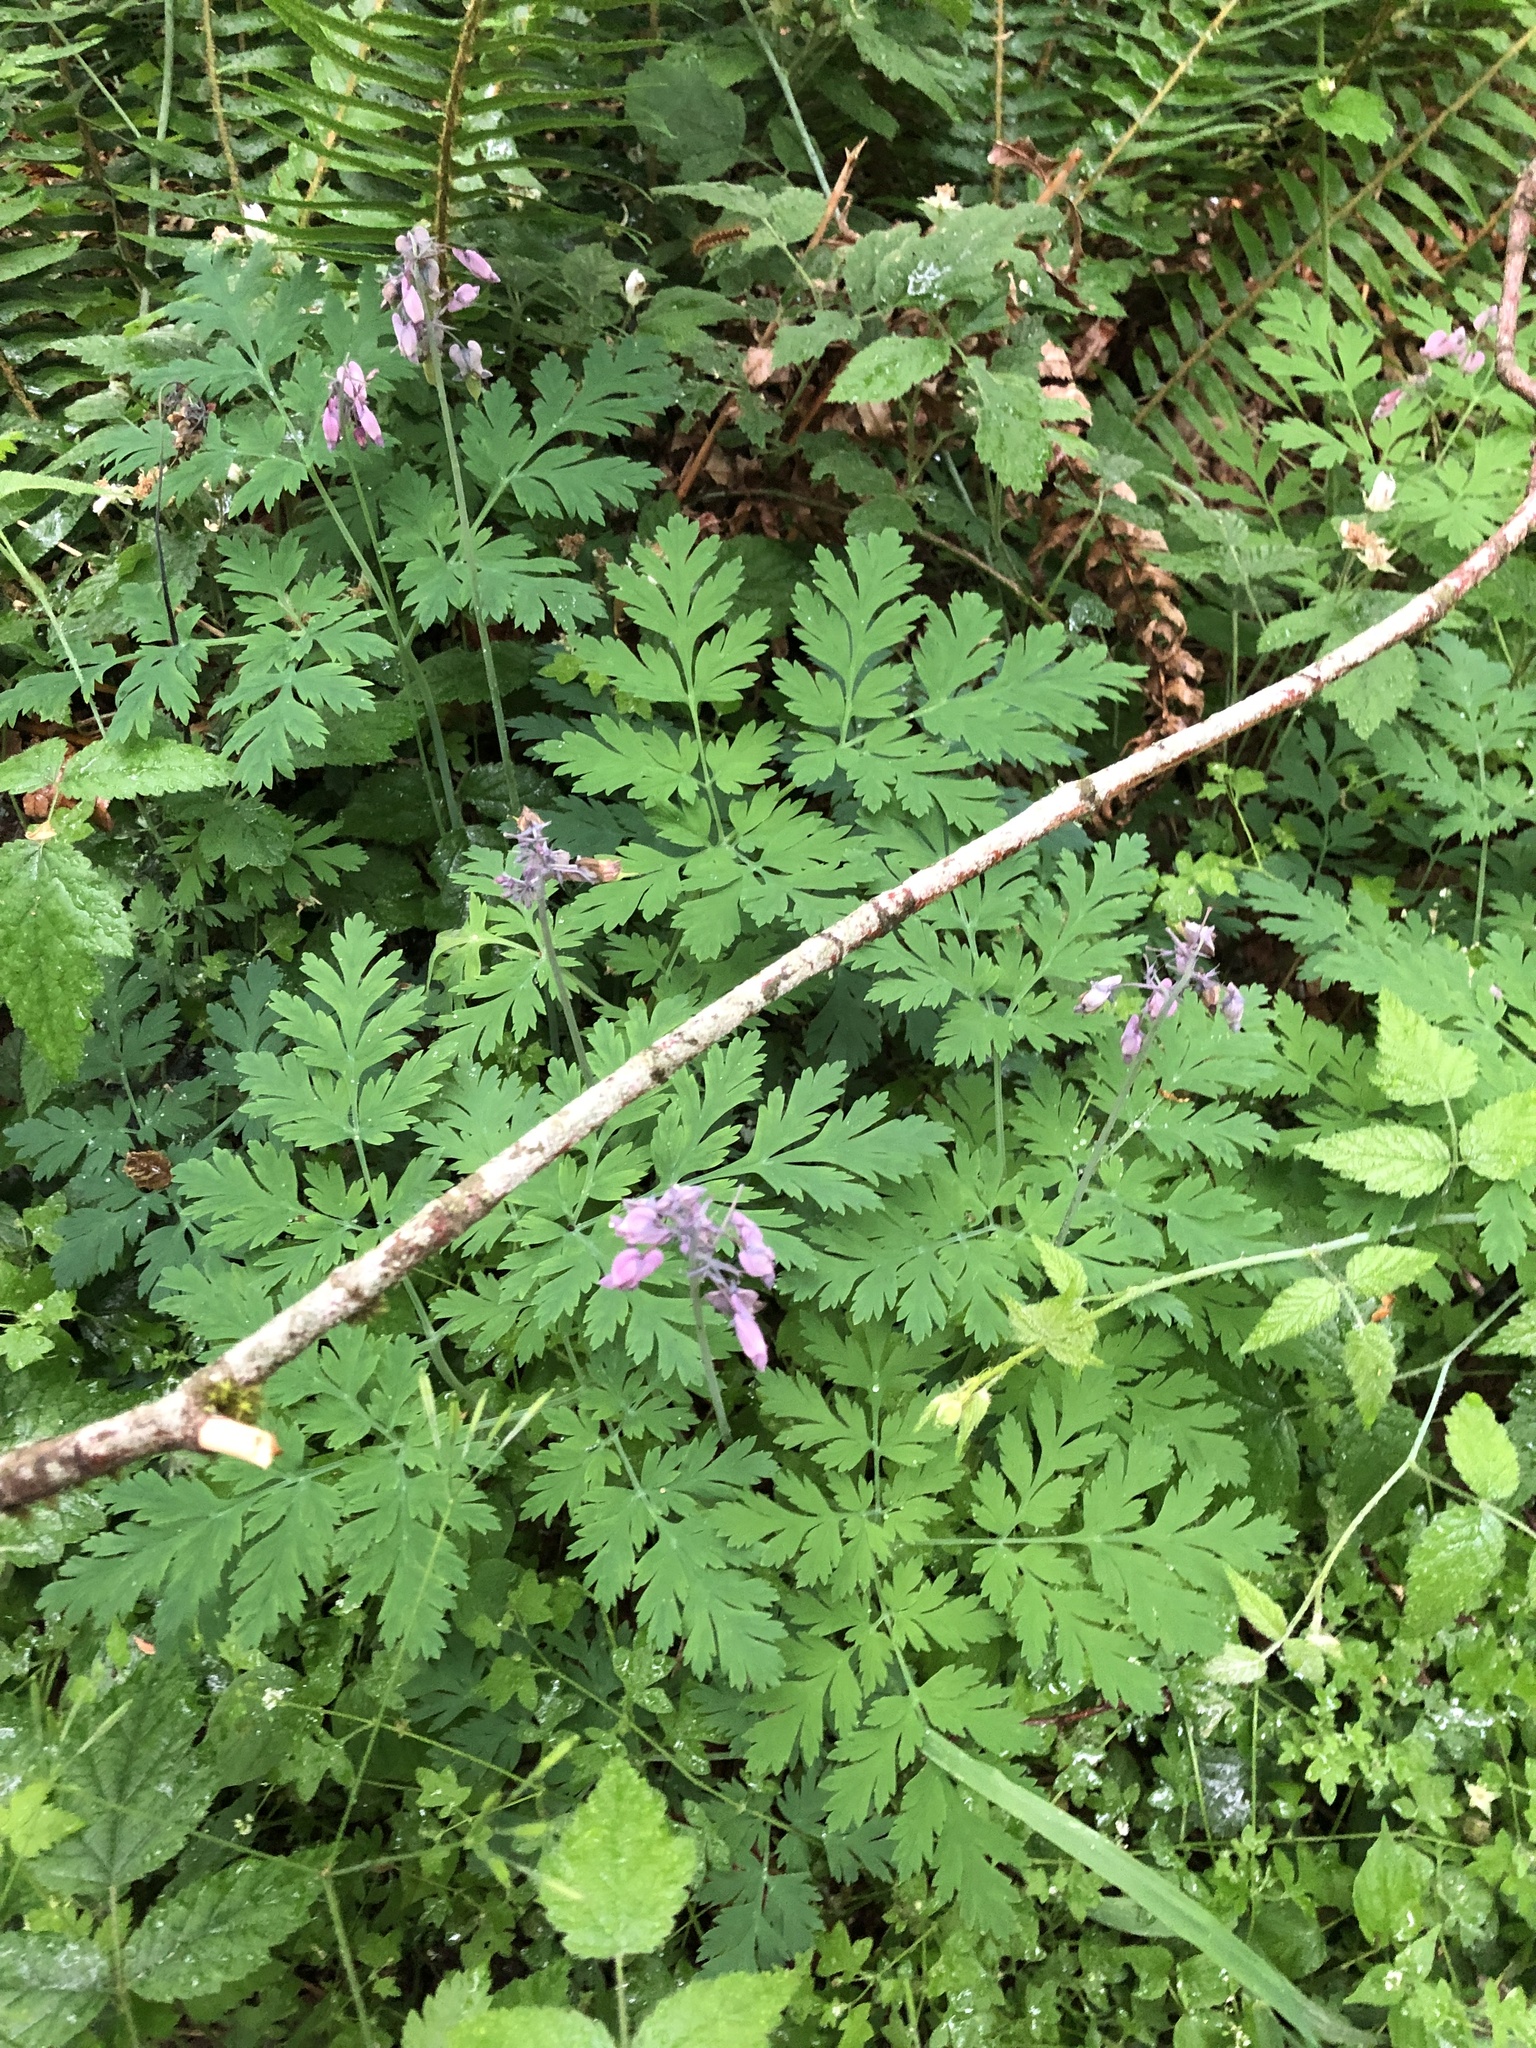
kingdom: Plantae
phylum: Tracheophyta
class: Magnoliopsida
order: Ranunculales
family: Papaveraceae
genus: Dicentra
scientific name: Dicentra formosa
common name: Bleeding-heart
